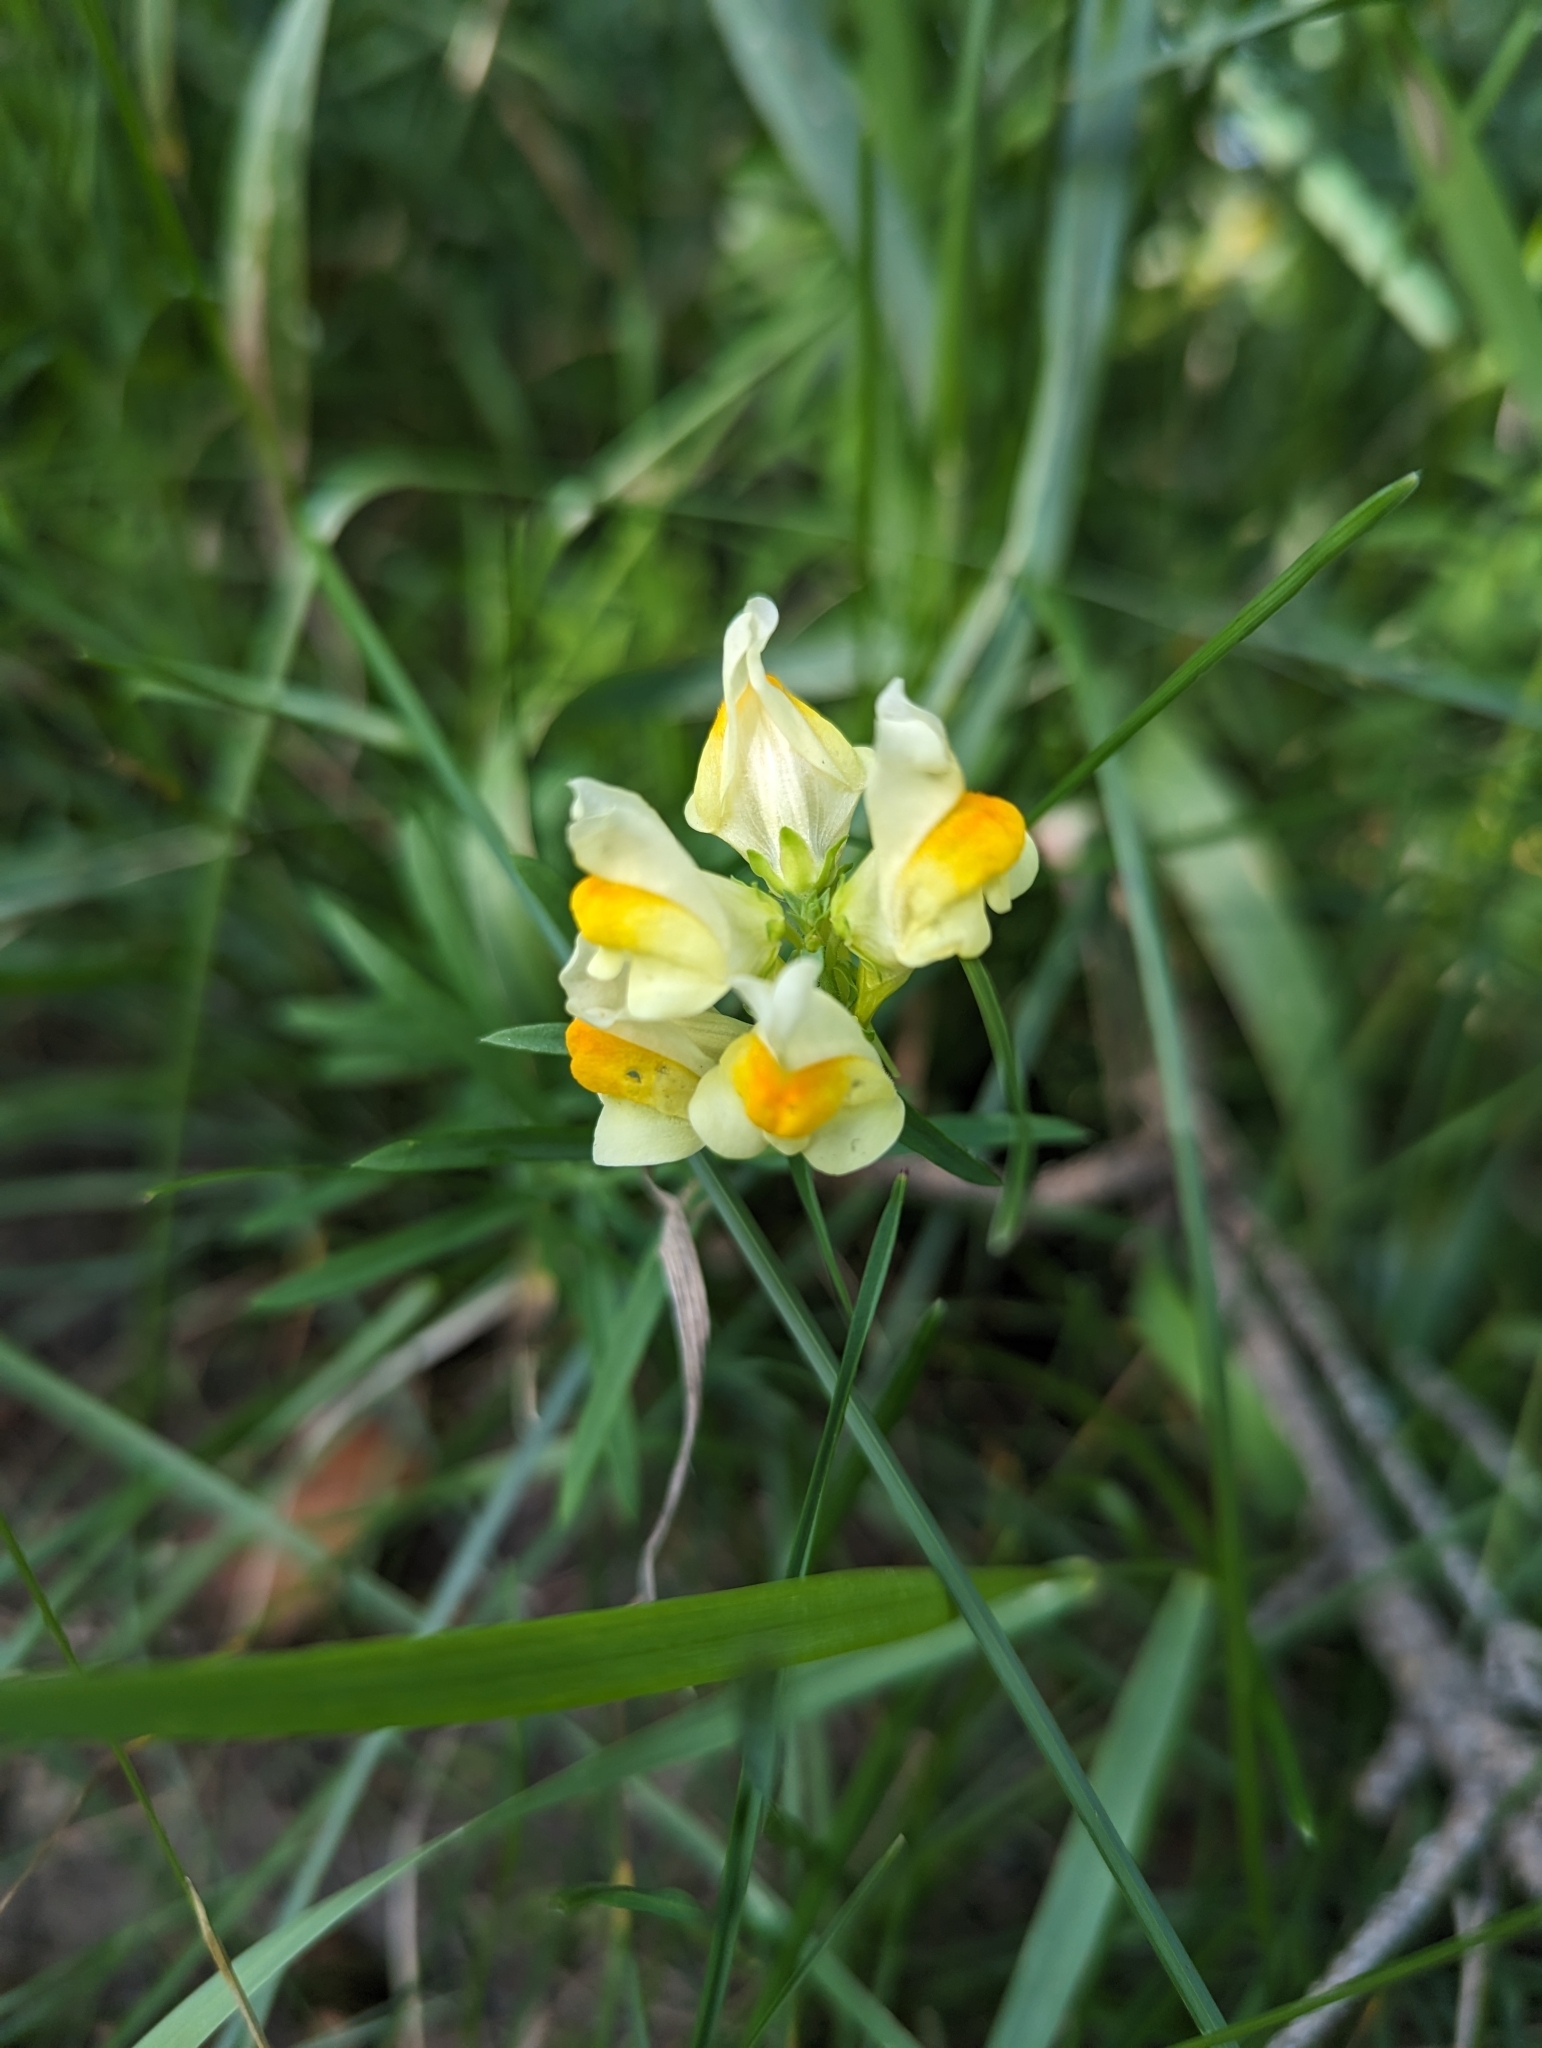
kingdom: Plantae
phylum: Tracheophyta
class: Magnoliopsida
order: Lamiales
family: Plantaginaceae
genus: Linaria
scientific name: Linaria vulgaris
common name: Butter and eggs
